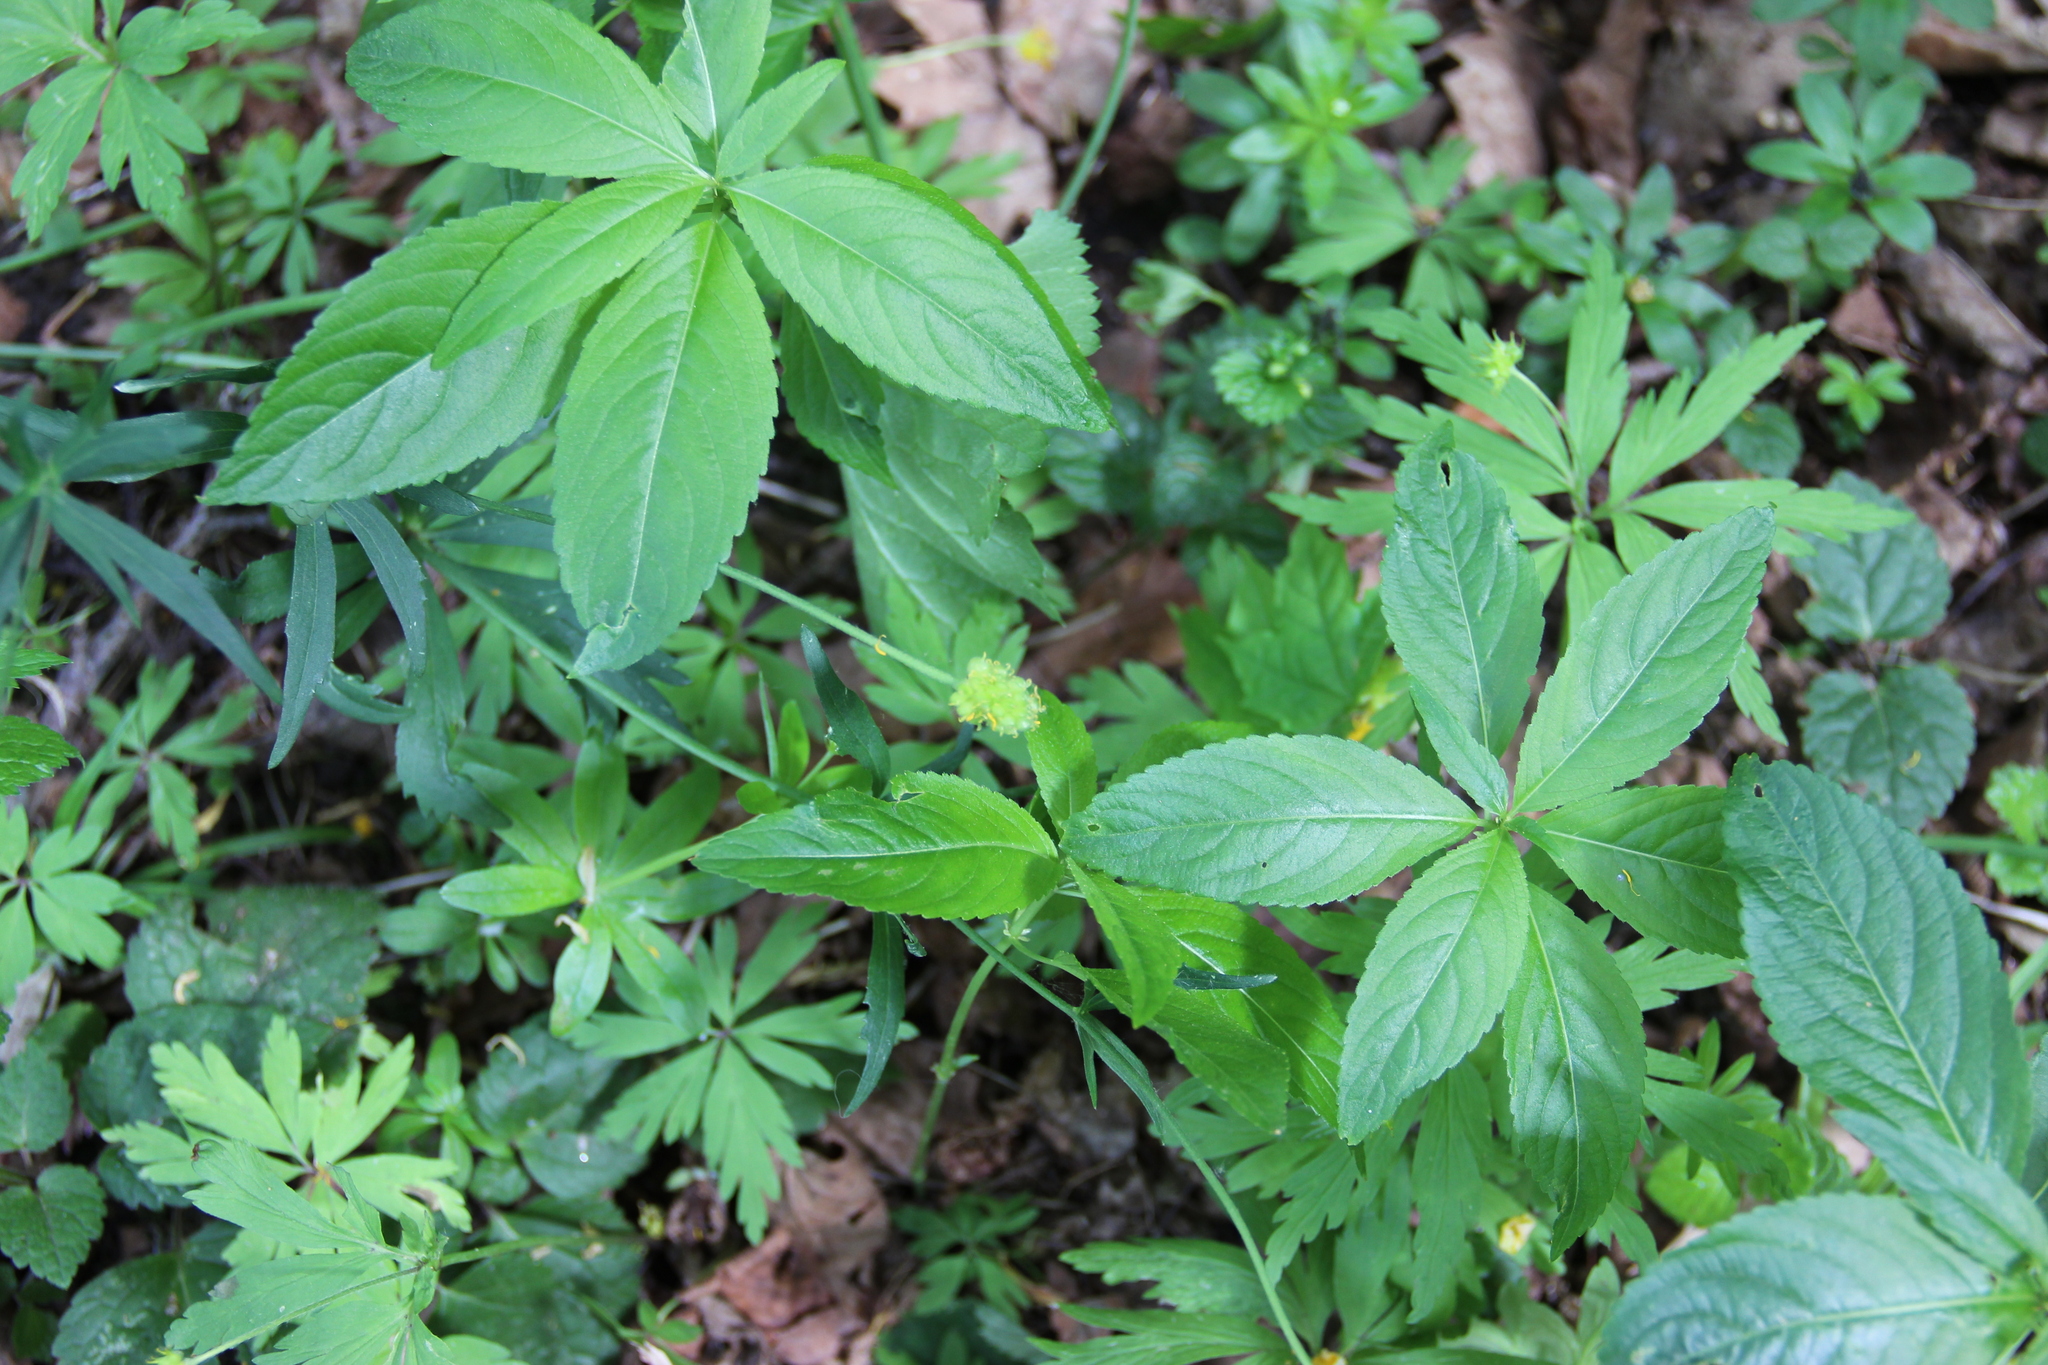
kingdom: Plantae
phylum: Tracheophyta
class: Magnoliopsida
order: Malpighiales
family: Euphorbiaceae
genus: Mercurialis
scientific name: Mercurialis perennis
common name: Dog mercury
